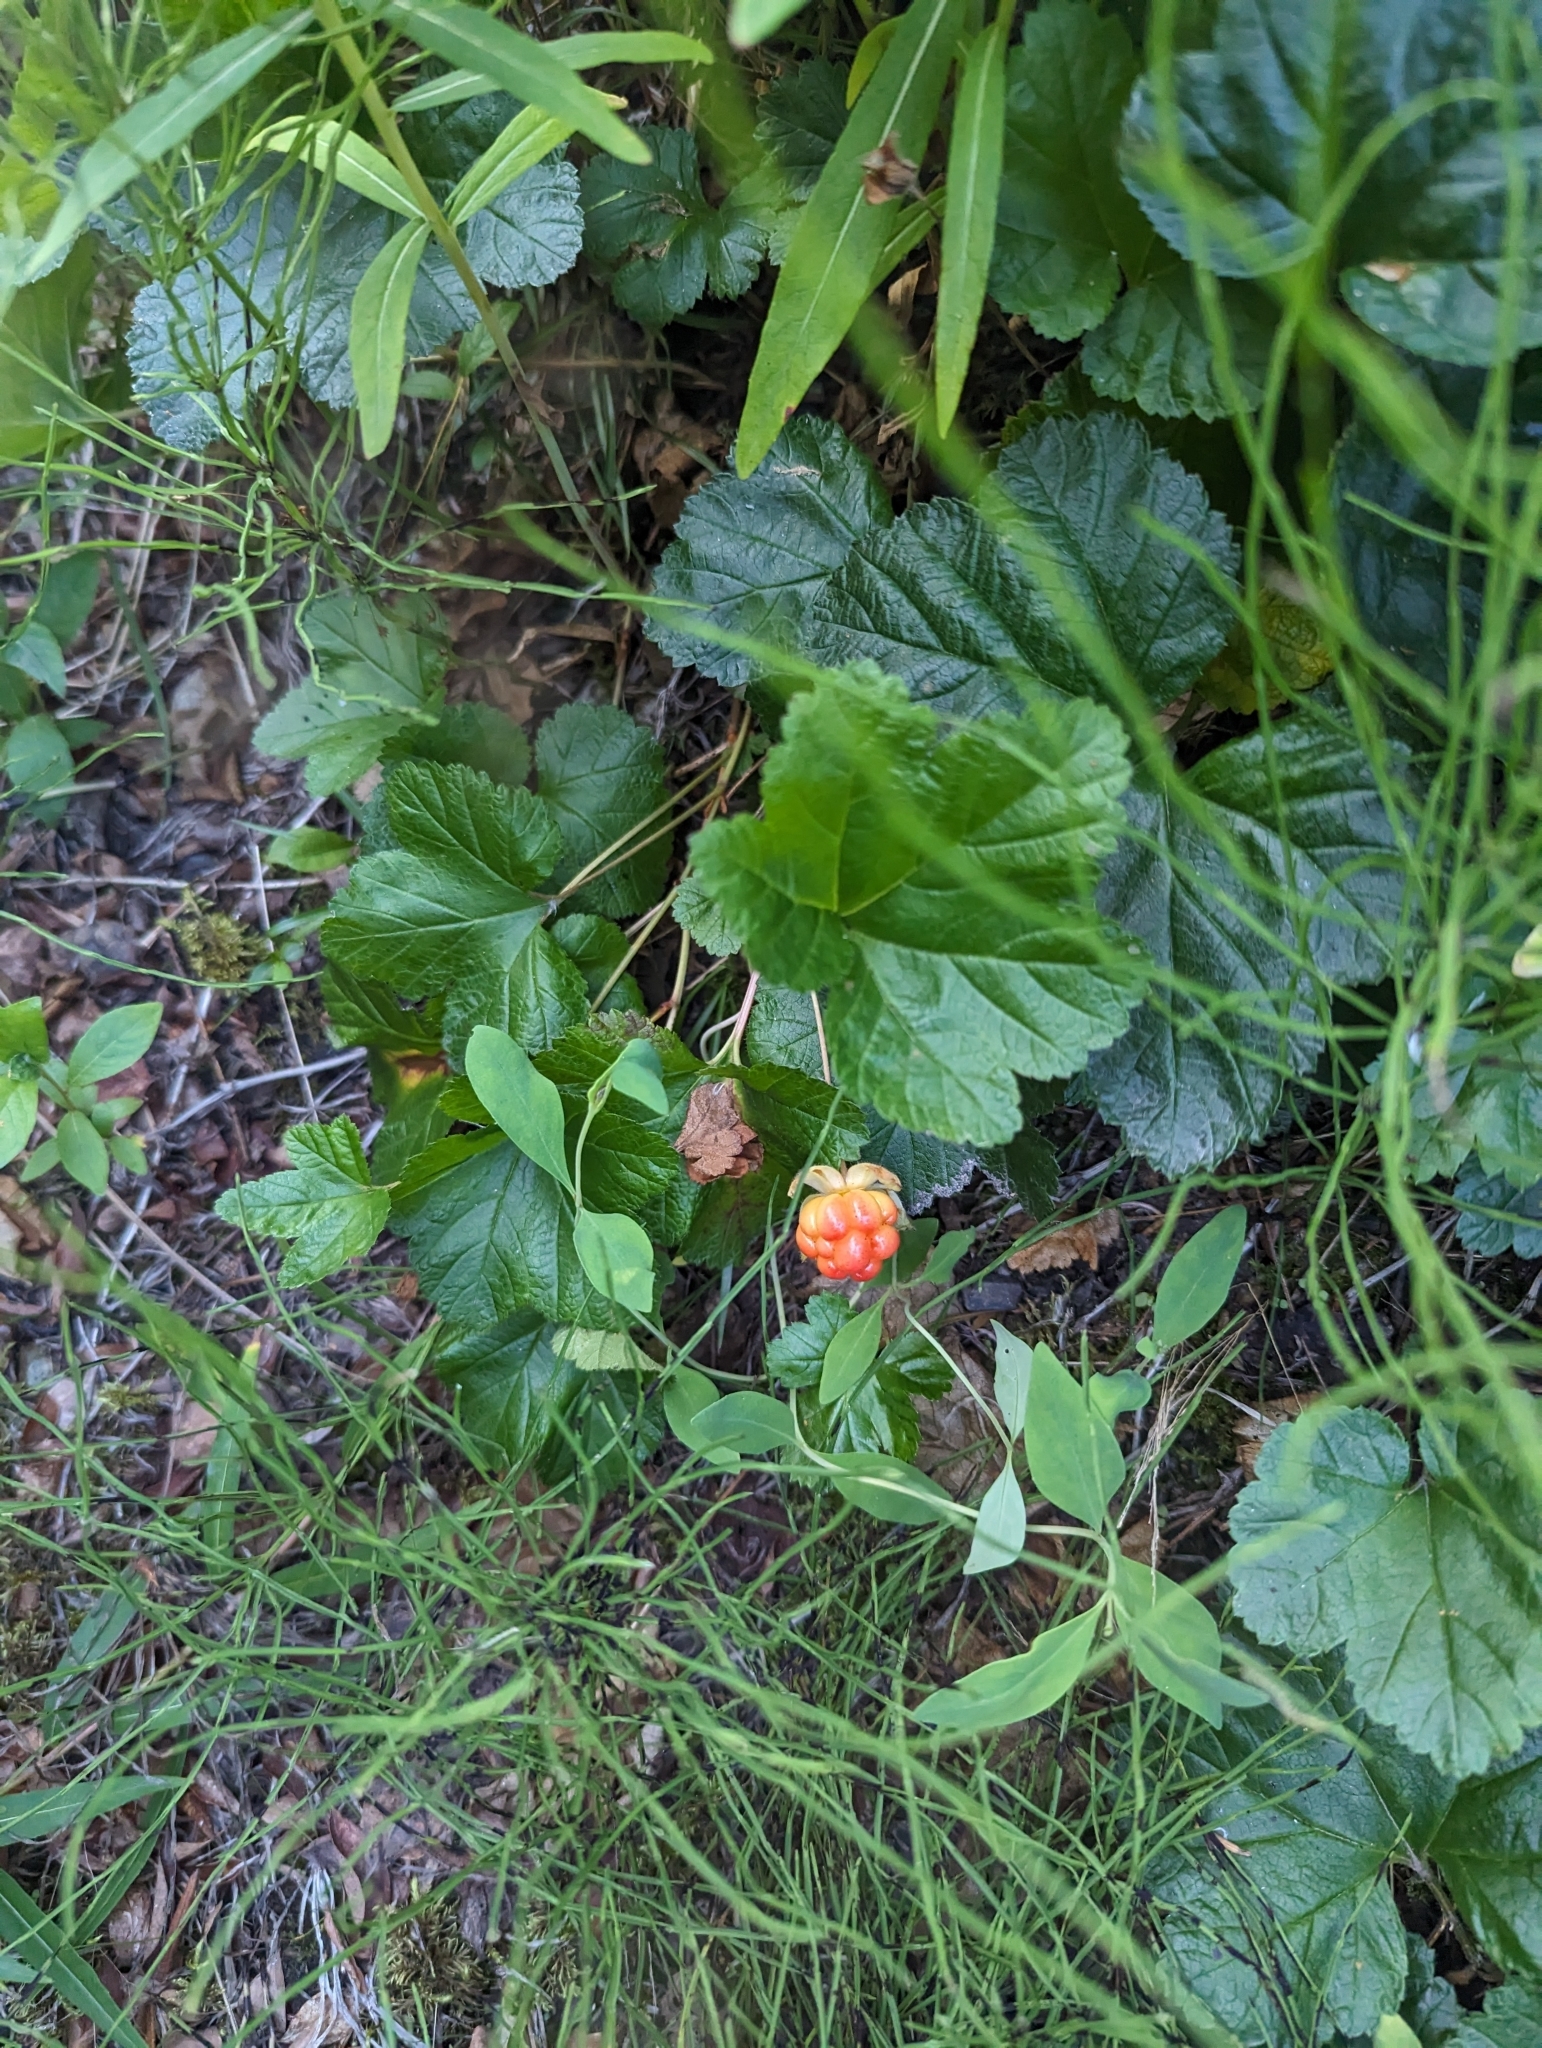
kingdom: Plantae
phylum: Tracheophyta
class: Magnoliopsida
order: Rosales
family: Rosaceae
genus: Rubus
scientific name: Rubus chamaemorus
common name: Cloudberry
